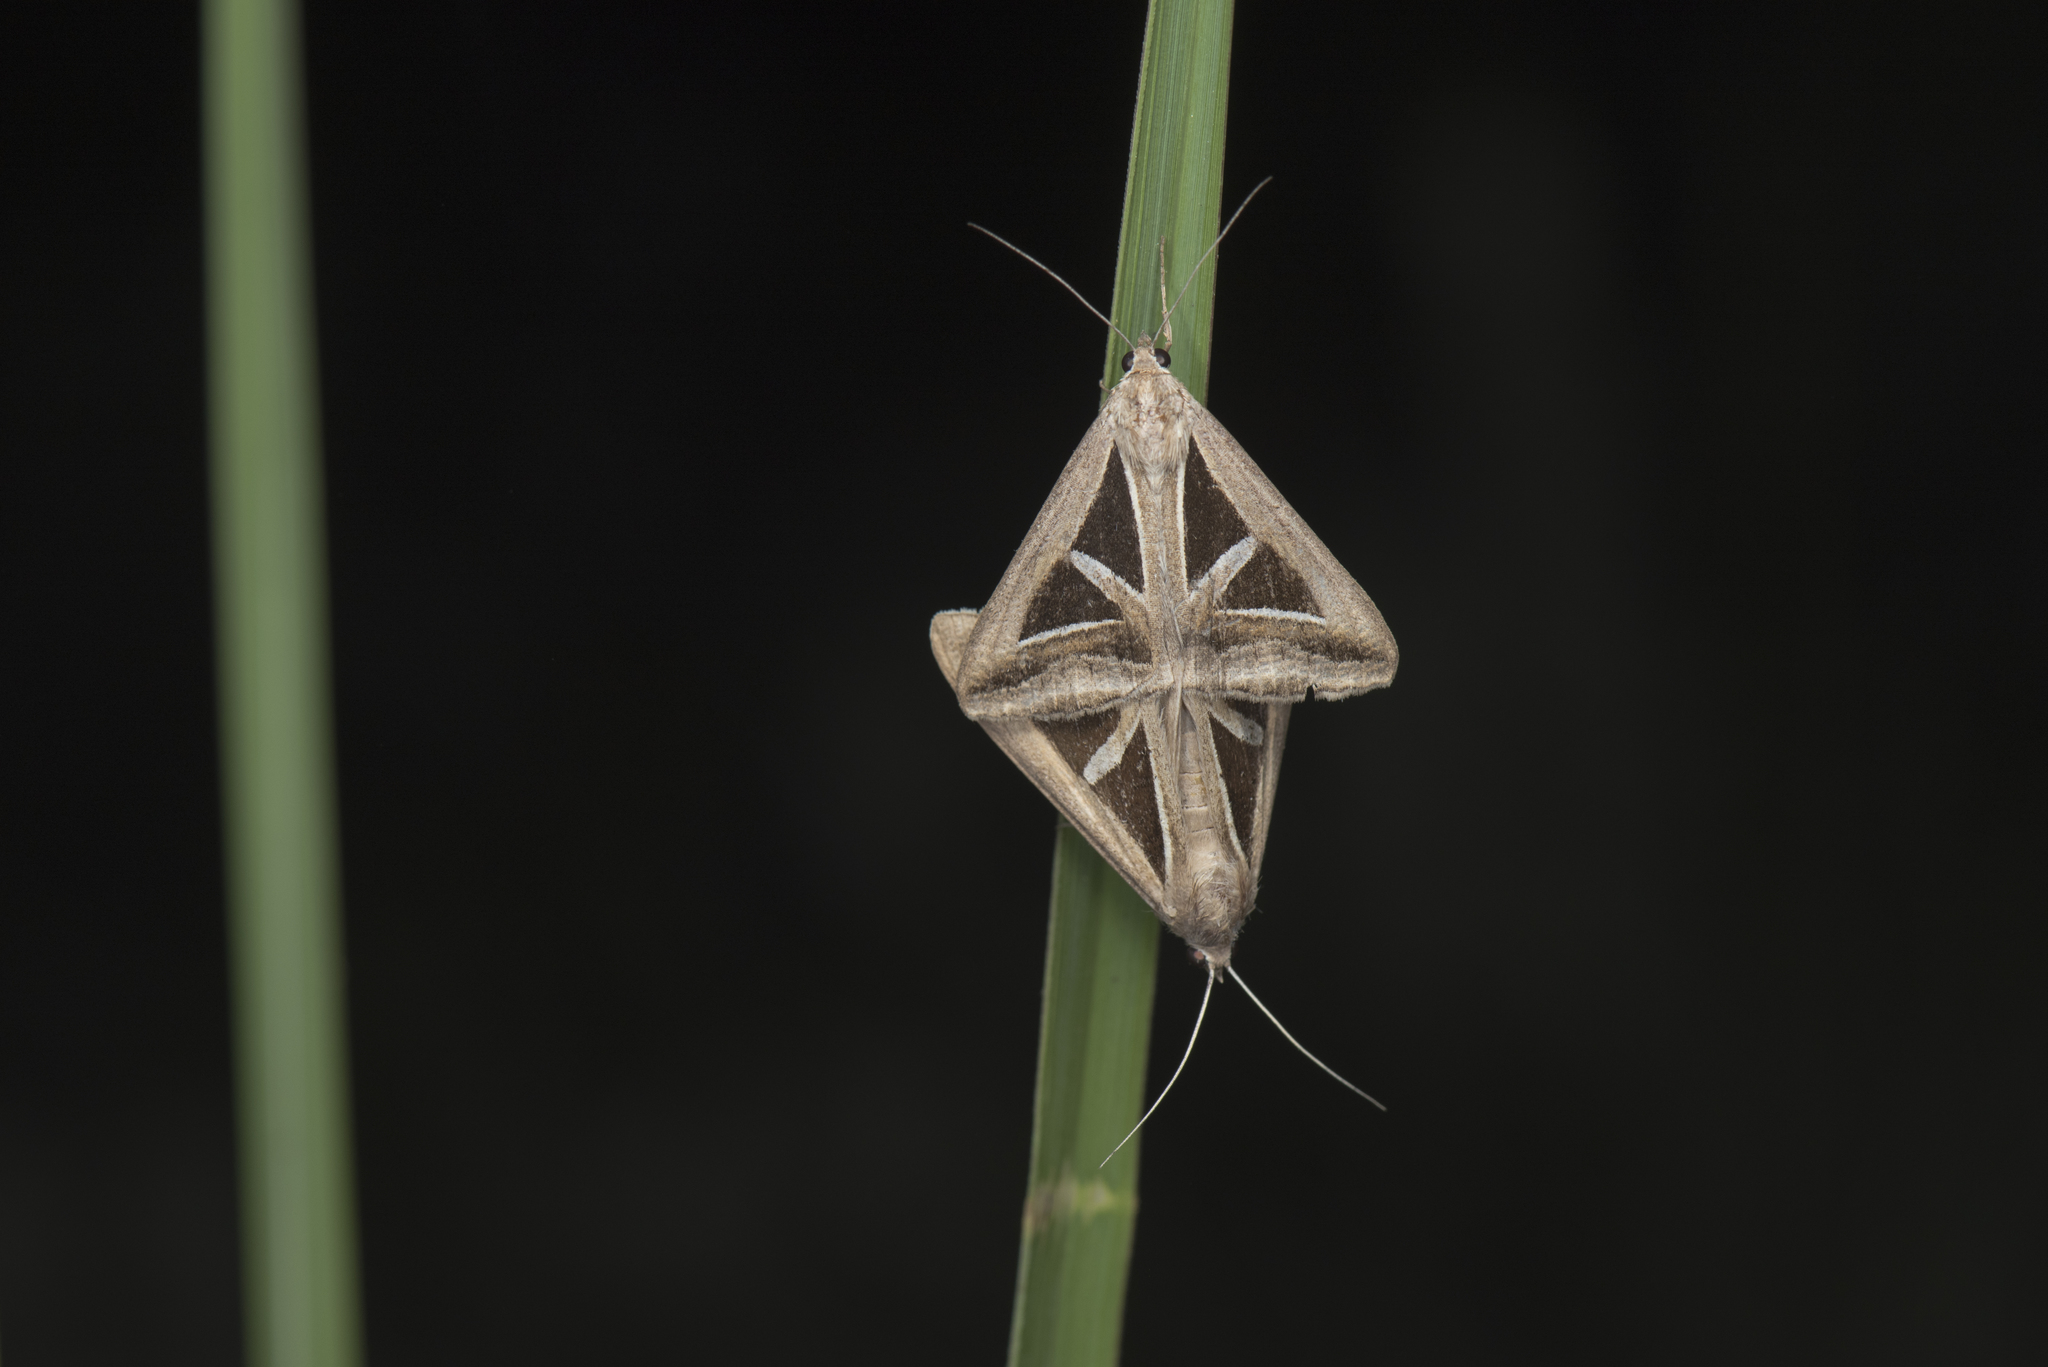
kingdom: Animalia
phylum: Arthropoda
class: Insecta
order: Lepidoptera
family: Erebidae
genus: Trigonodes
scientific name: Trigonodes hyppasia
